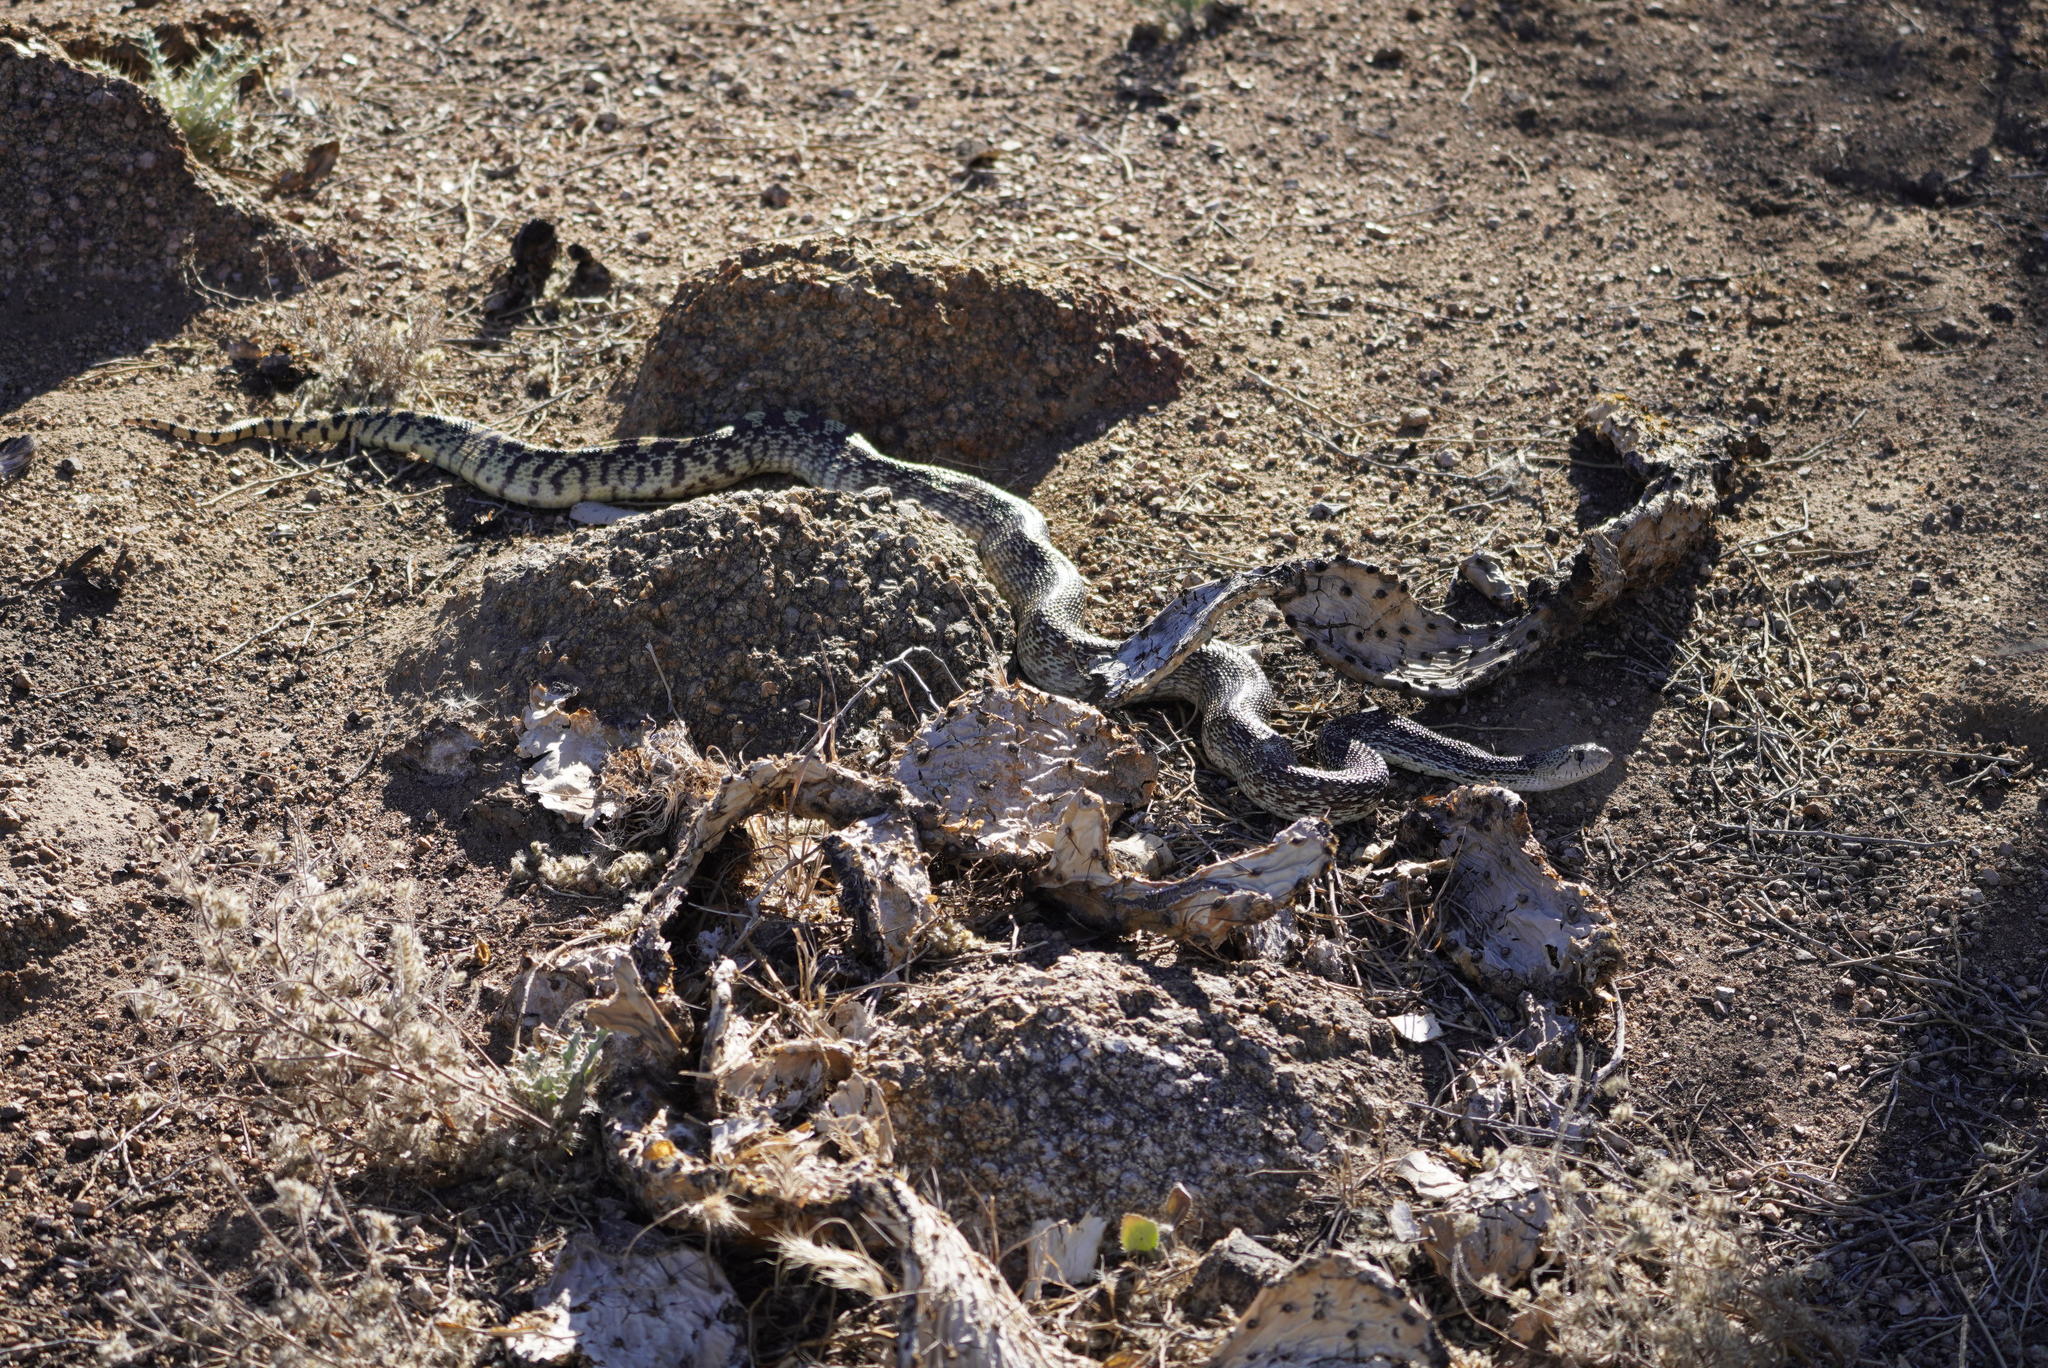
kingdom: Animalia
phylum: Chordata
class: Squamata
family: Colubridae
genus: Pituophis
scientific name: Pituophis catenifer
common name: Gopher snake
